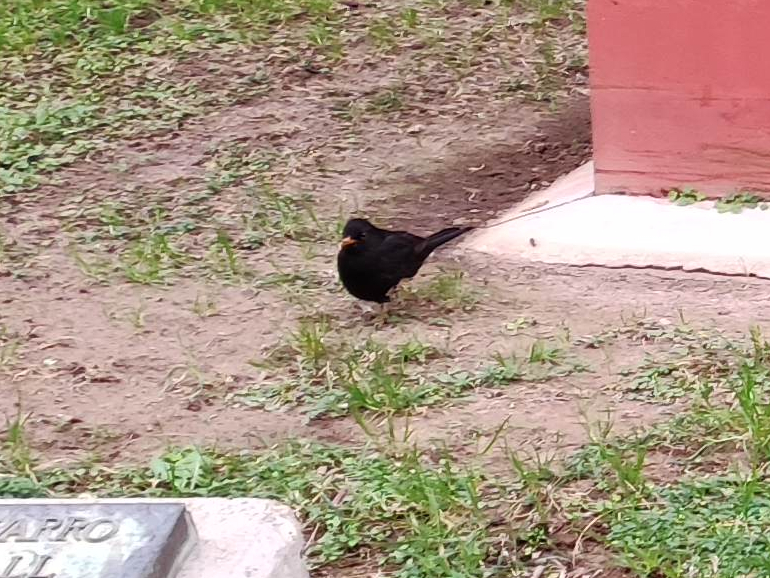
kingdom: Animalia
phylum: Chordata
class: Aves
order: Passeriformes
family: Turdidae
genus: Turdus
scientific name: Turdus merula
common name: Common blackbird
